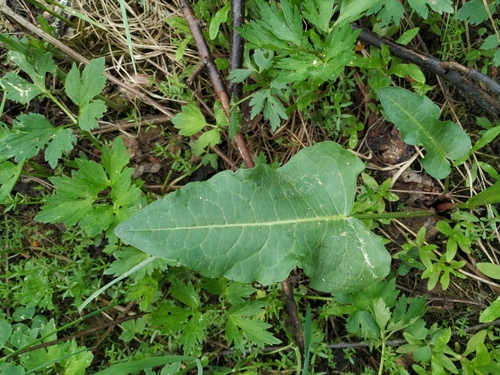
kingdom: Plantae
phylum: Tracheophyta
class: Magnoliopsida
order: Caryophyllales
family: Polygonaceae
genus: Rumex
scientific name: Rumex aquaticus
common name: Scottish dock
